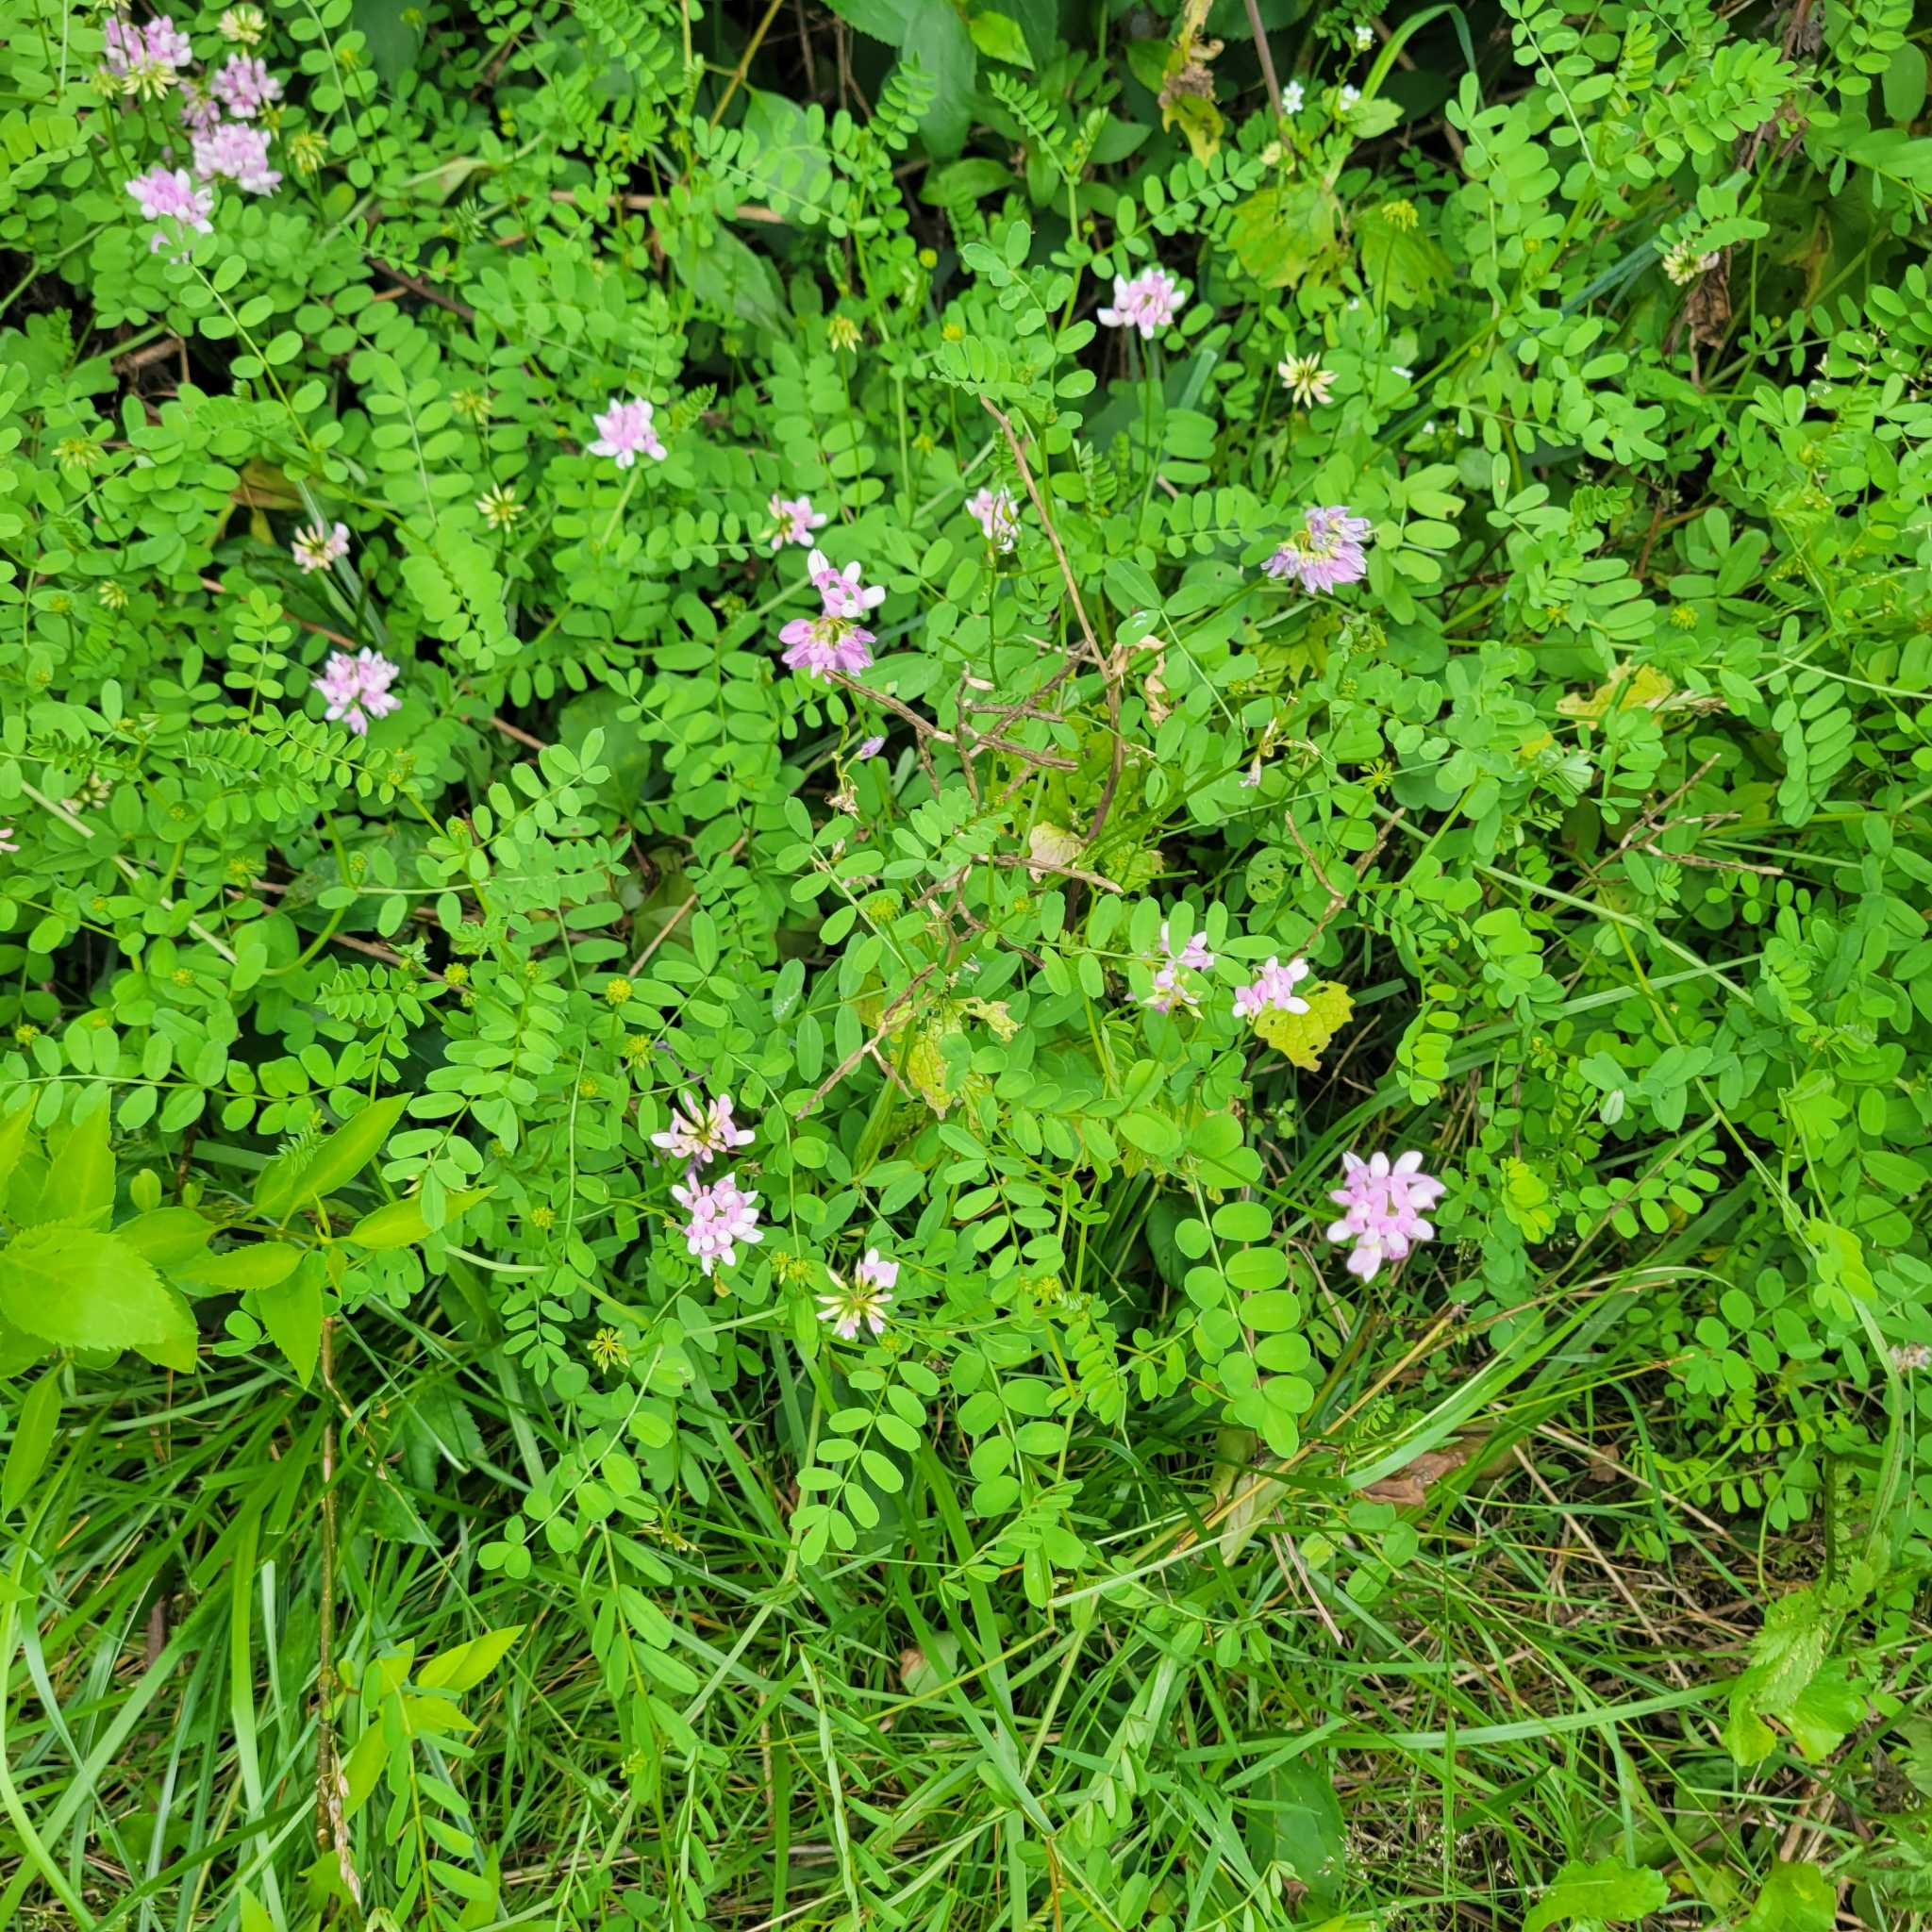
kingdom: Plantae
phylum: Tracheophyta
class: Magnoliopsida
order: Fabales
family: Fabaceae
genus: Coronilla
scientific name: Coronilla varia
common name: Crownvetch
